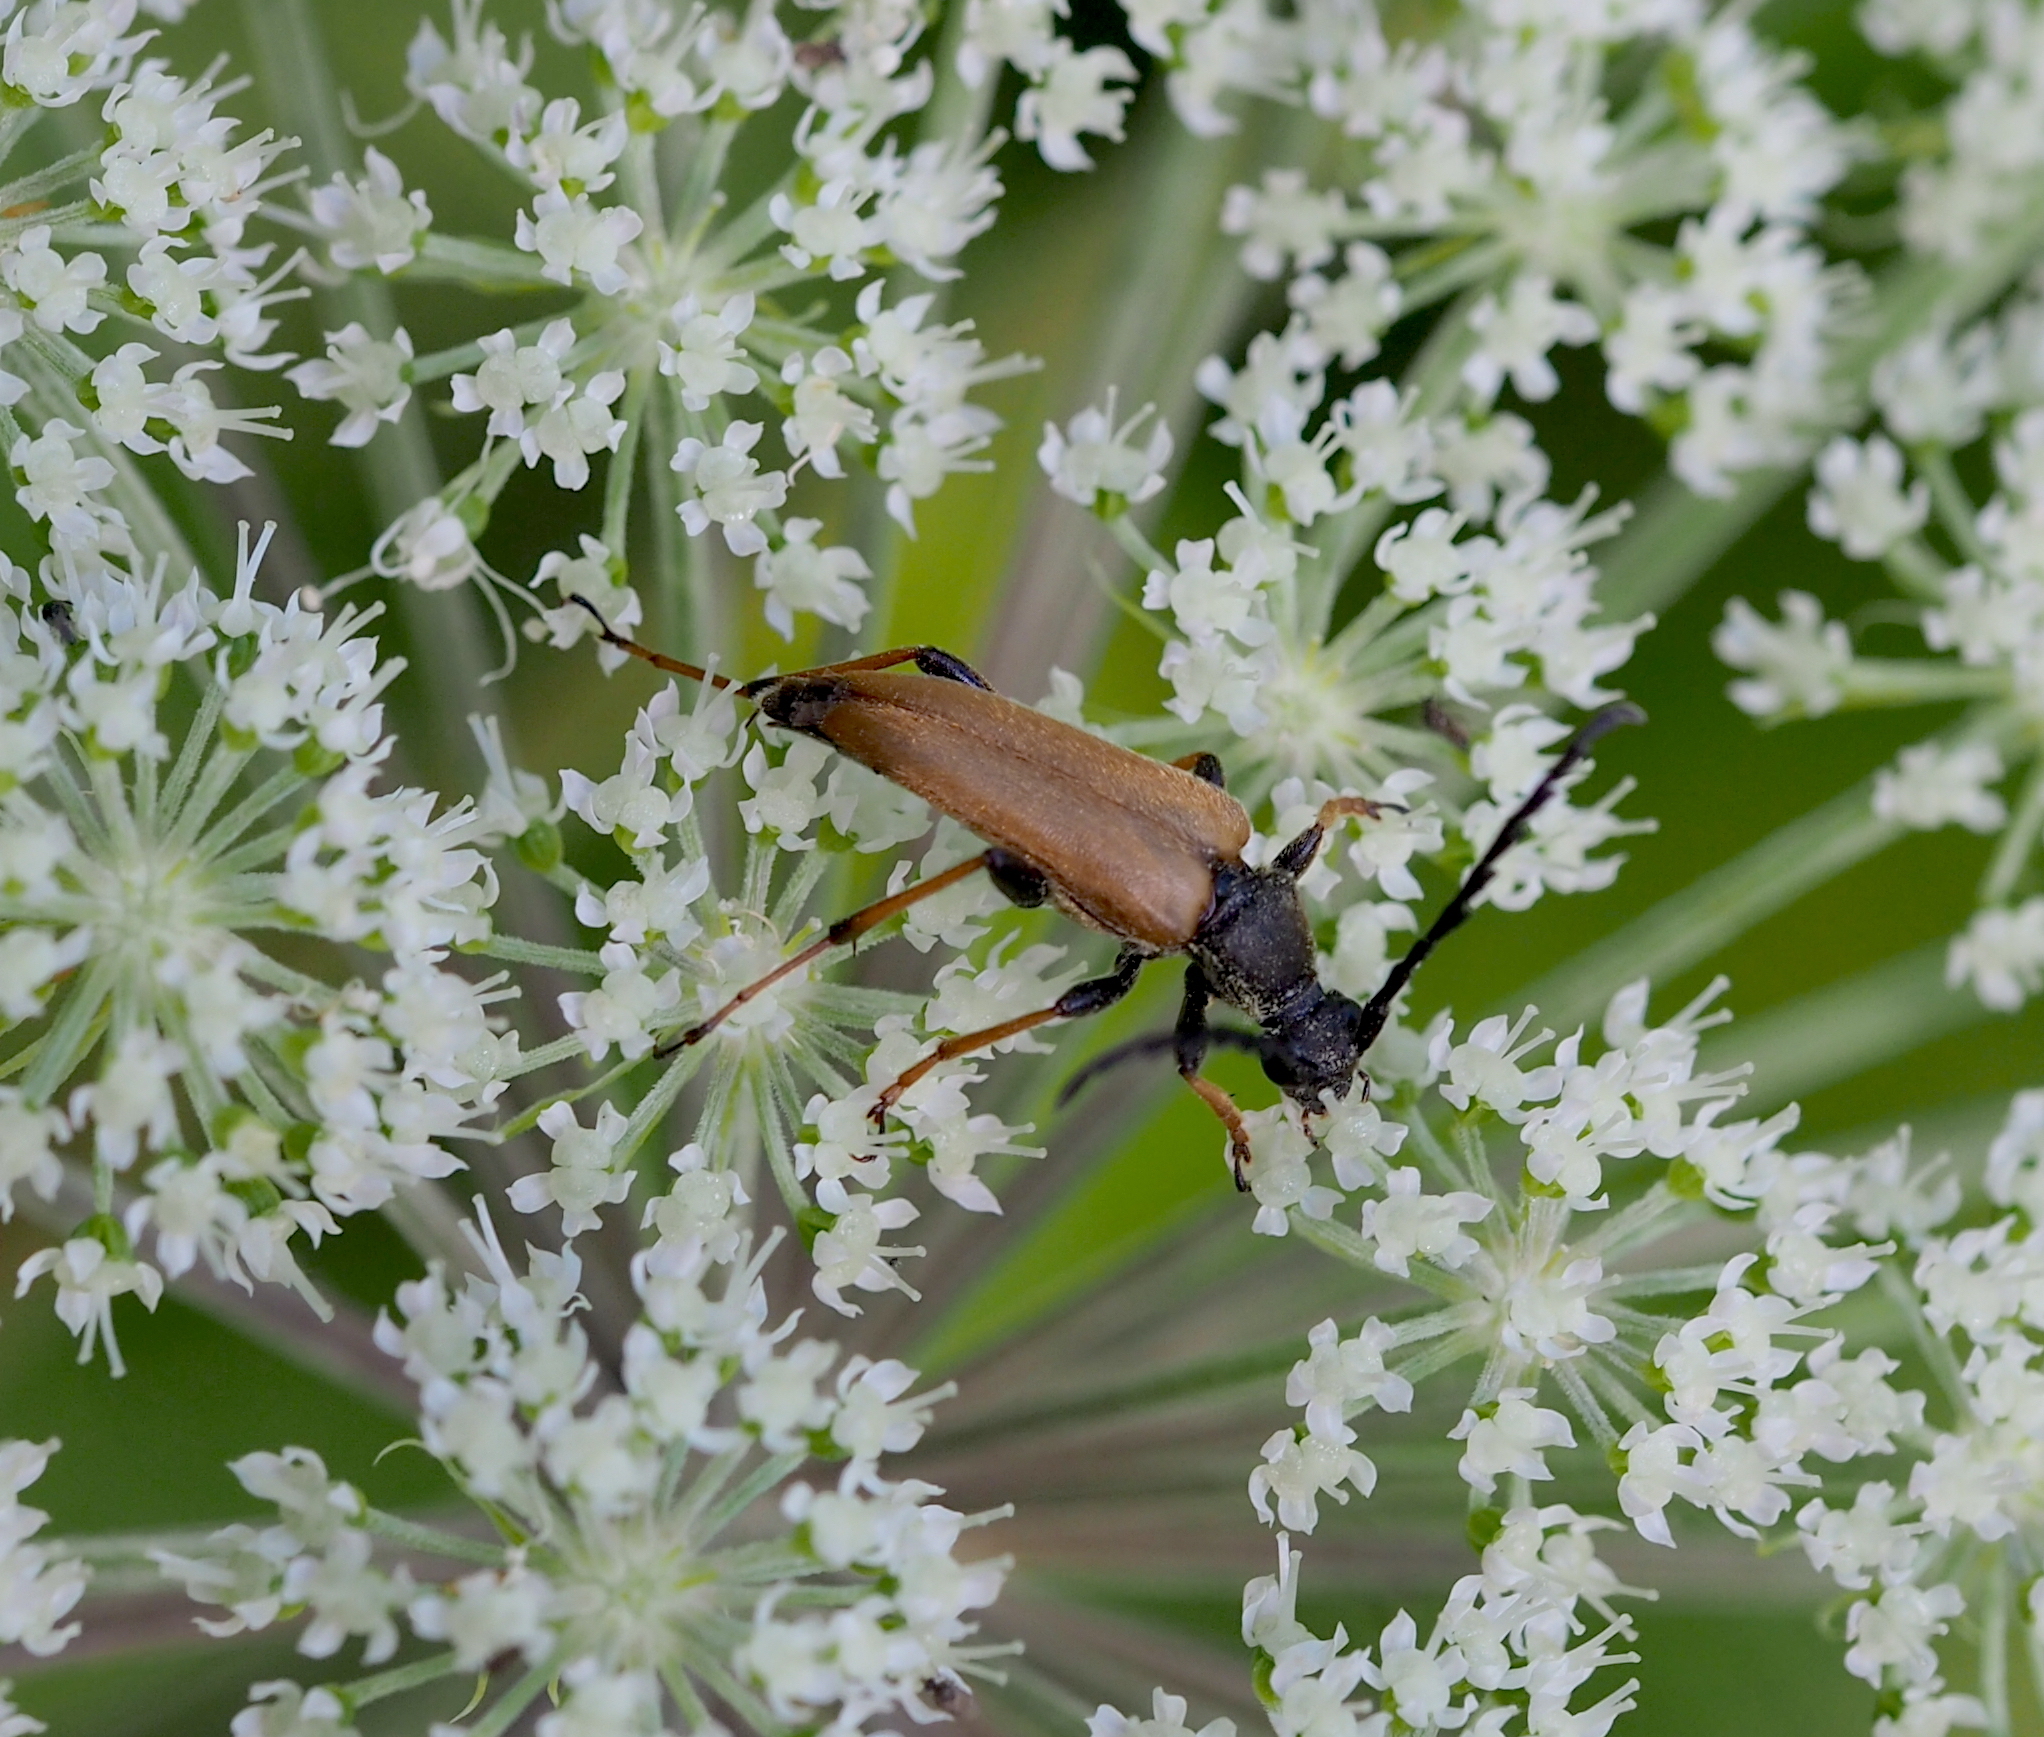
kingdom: Animalia
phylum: Arthropoda
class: Insecta
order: Coleoptera
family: Cerambycidae
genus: Stictoleptura
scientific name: Stictoleptura rubra
